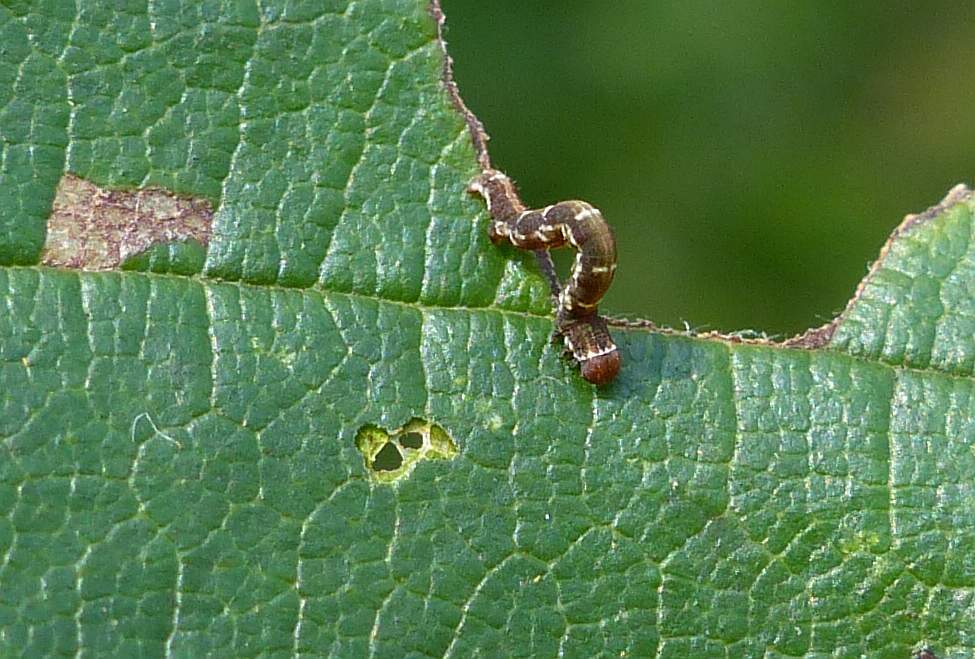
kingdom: Animalia
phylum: Arthropoda
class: Insecta
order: Lepidoptera
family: Geometridae
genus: Hypagyrtis
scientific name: Hypagyrtis unipunctata
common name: One-spotted variant
